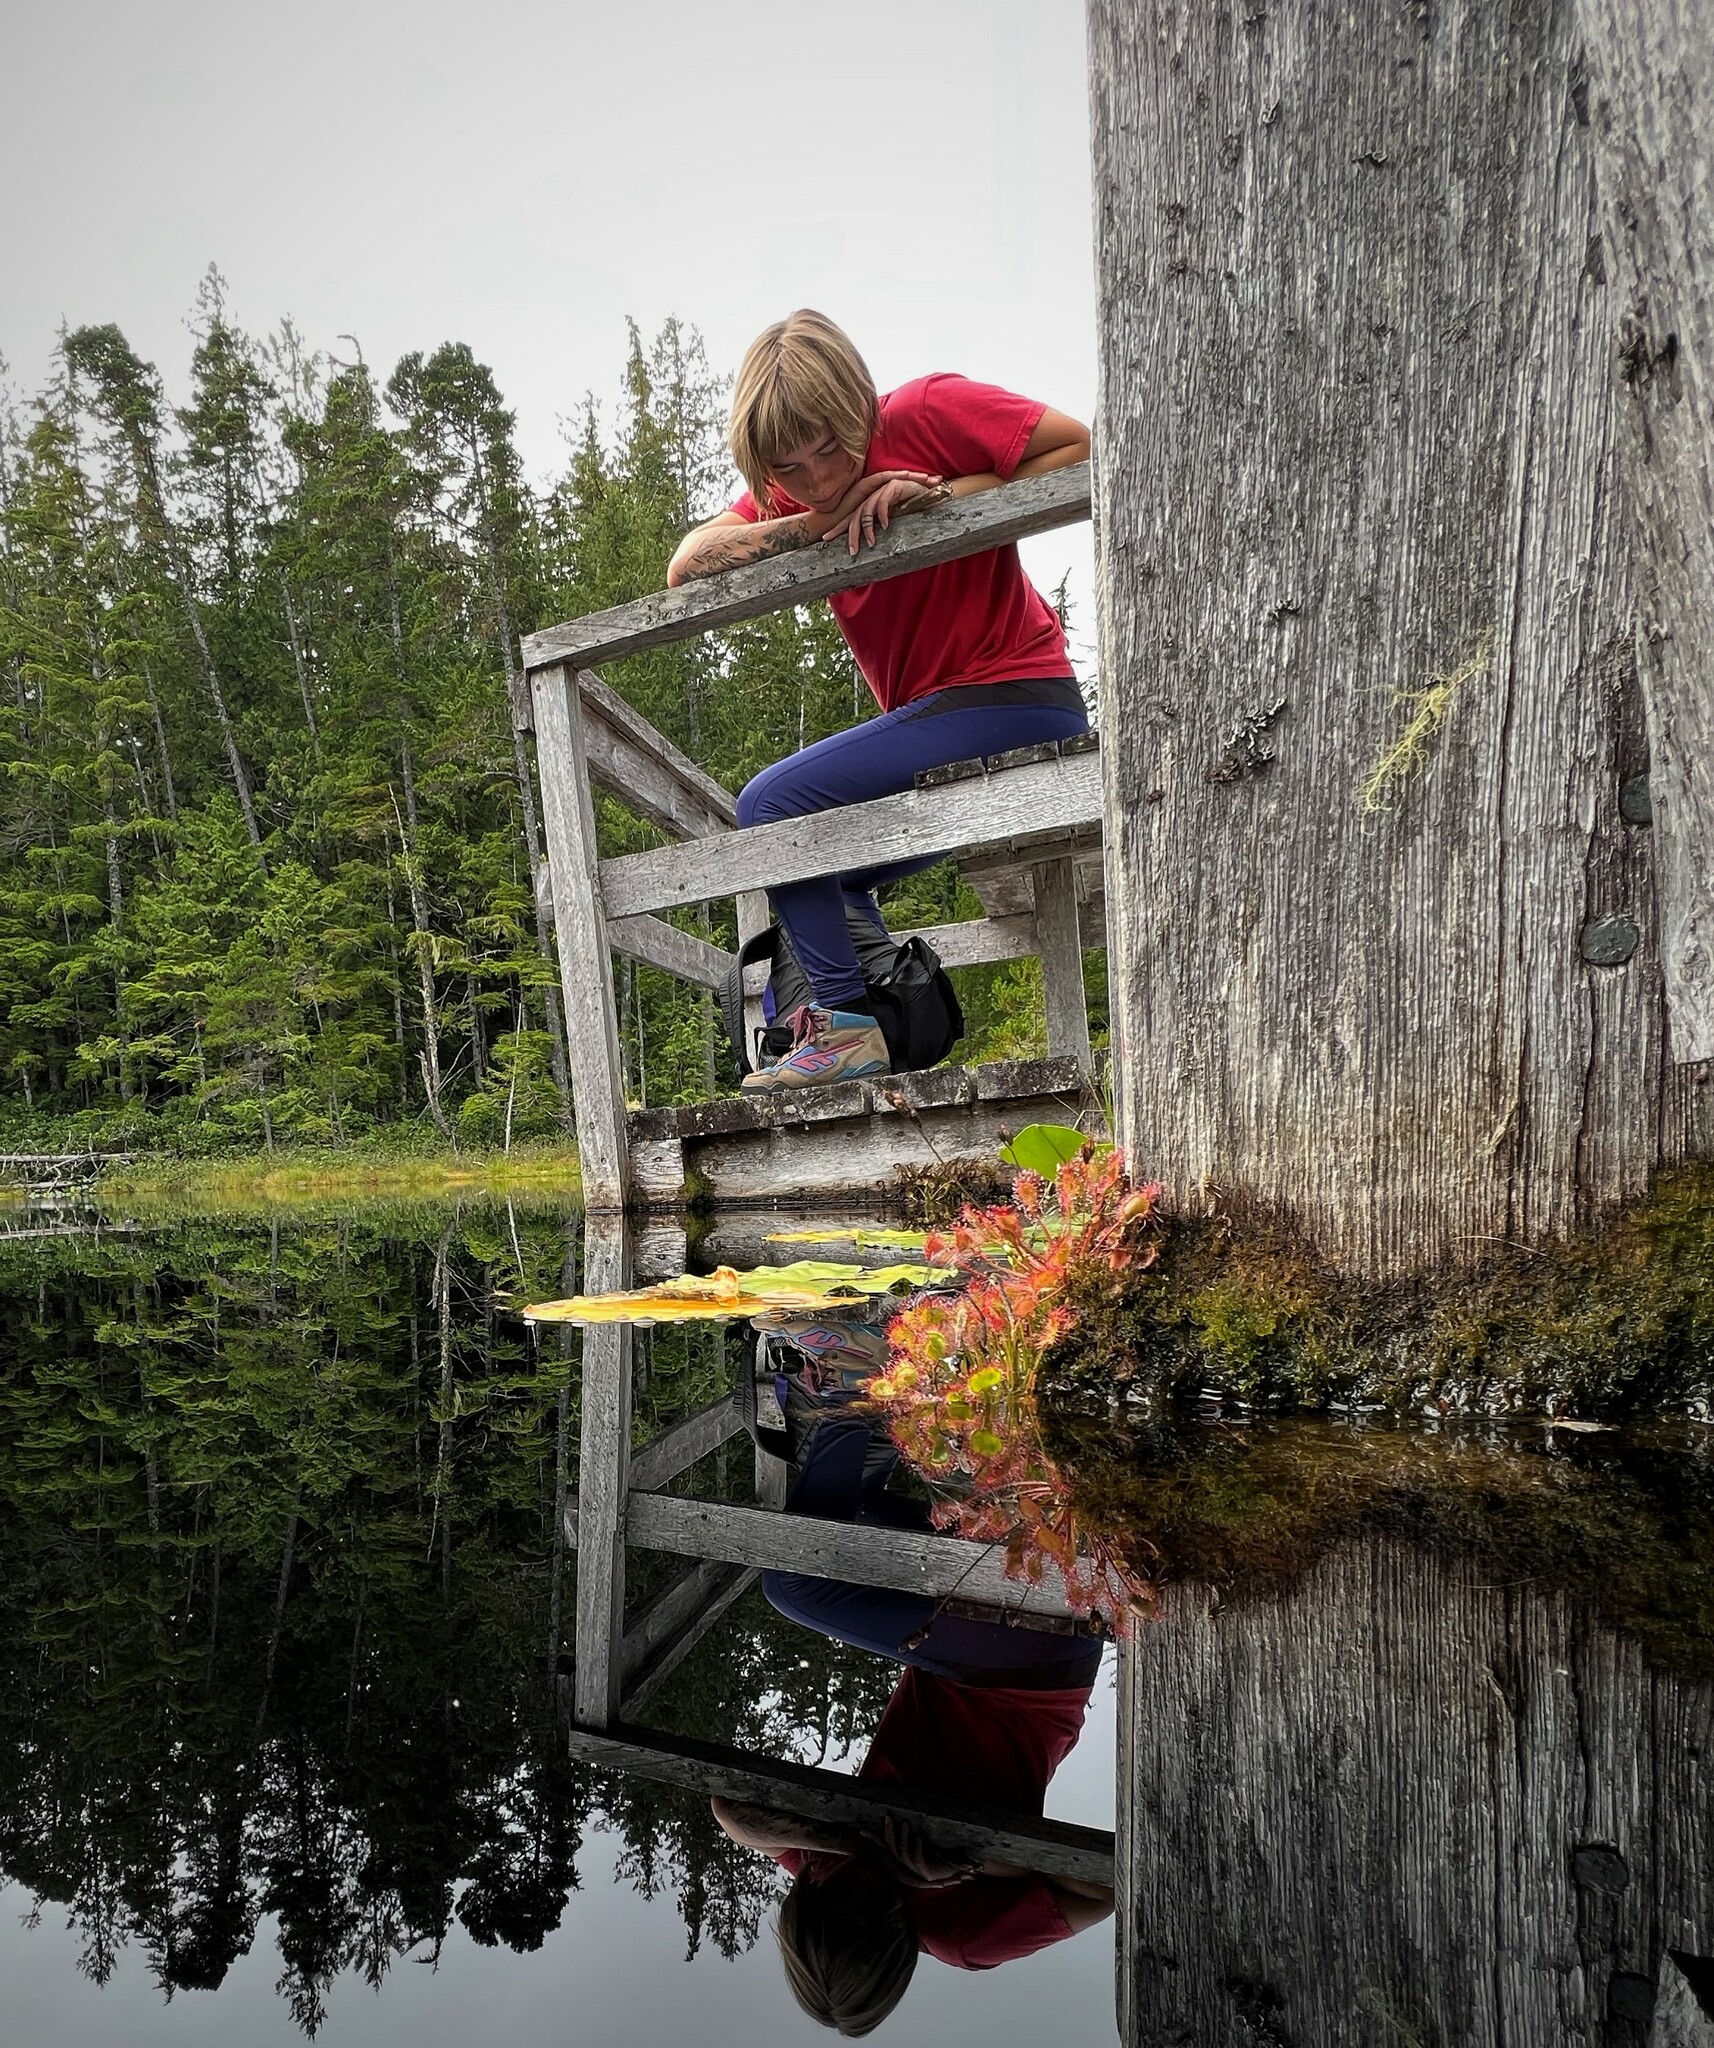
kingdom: Plantae
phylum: Tracheophyta
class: Magnoliopsida
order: Caryophyllales
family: Droseraceae
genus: Drosera
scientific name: Drosera rotundifolia
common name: Round-leaved sundew
